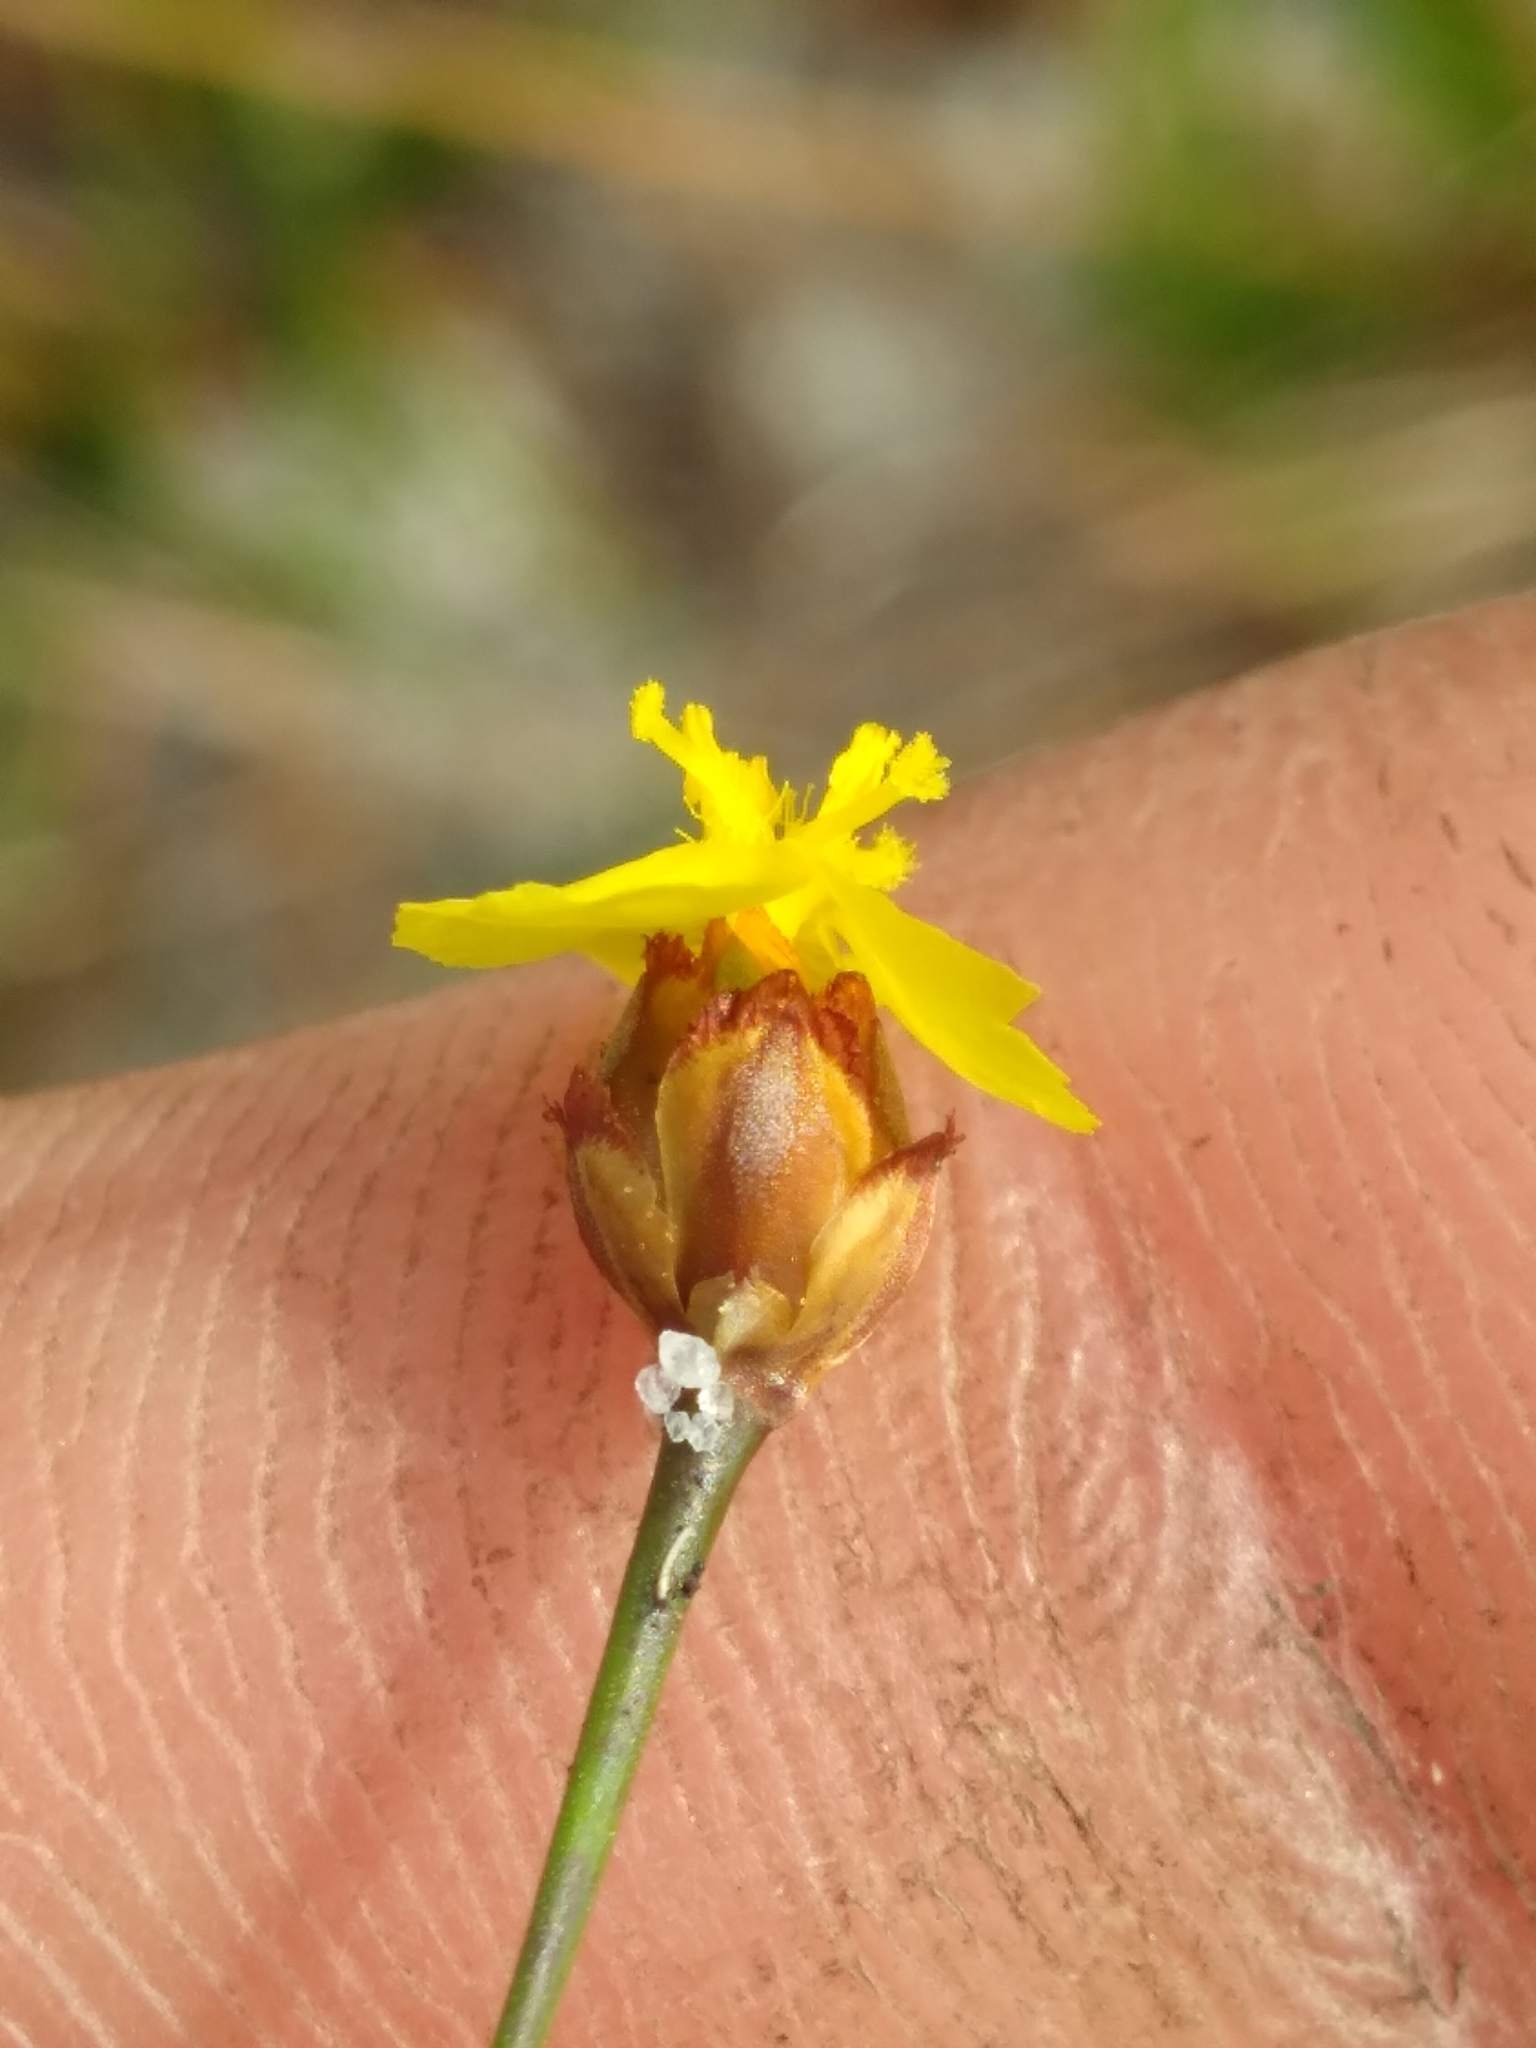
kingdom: Plantae
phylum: Tracheophyta
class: Liliopsida
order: Poales
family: Xyridaceae
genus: Xyris
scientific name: Xyris brevifolia
